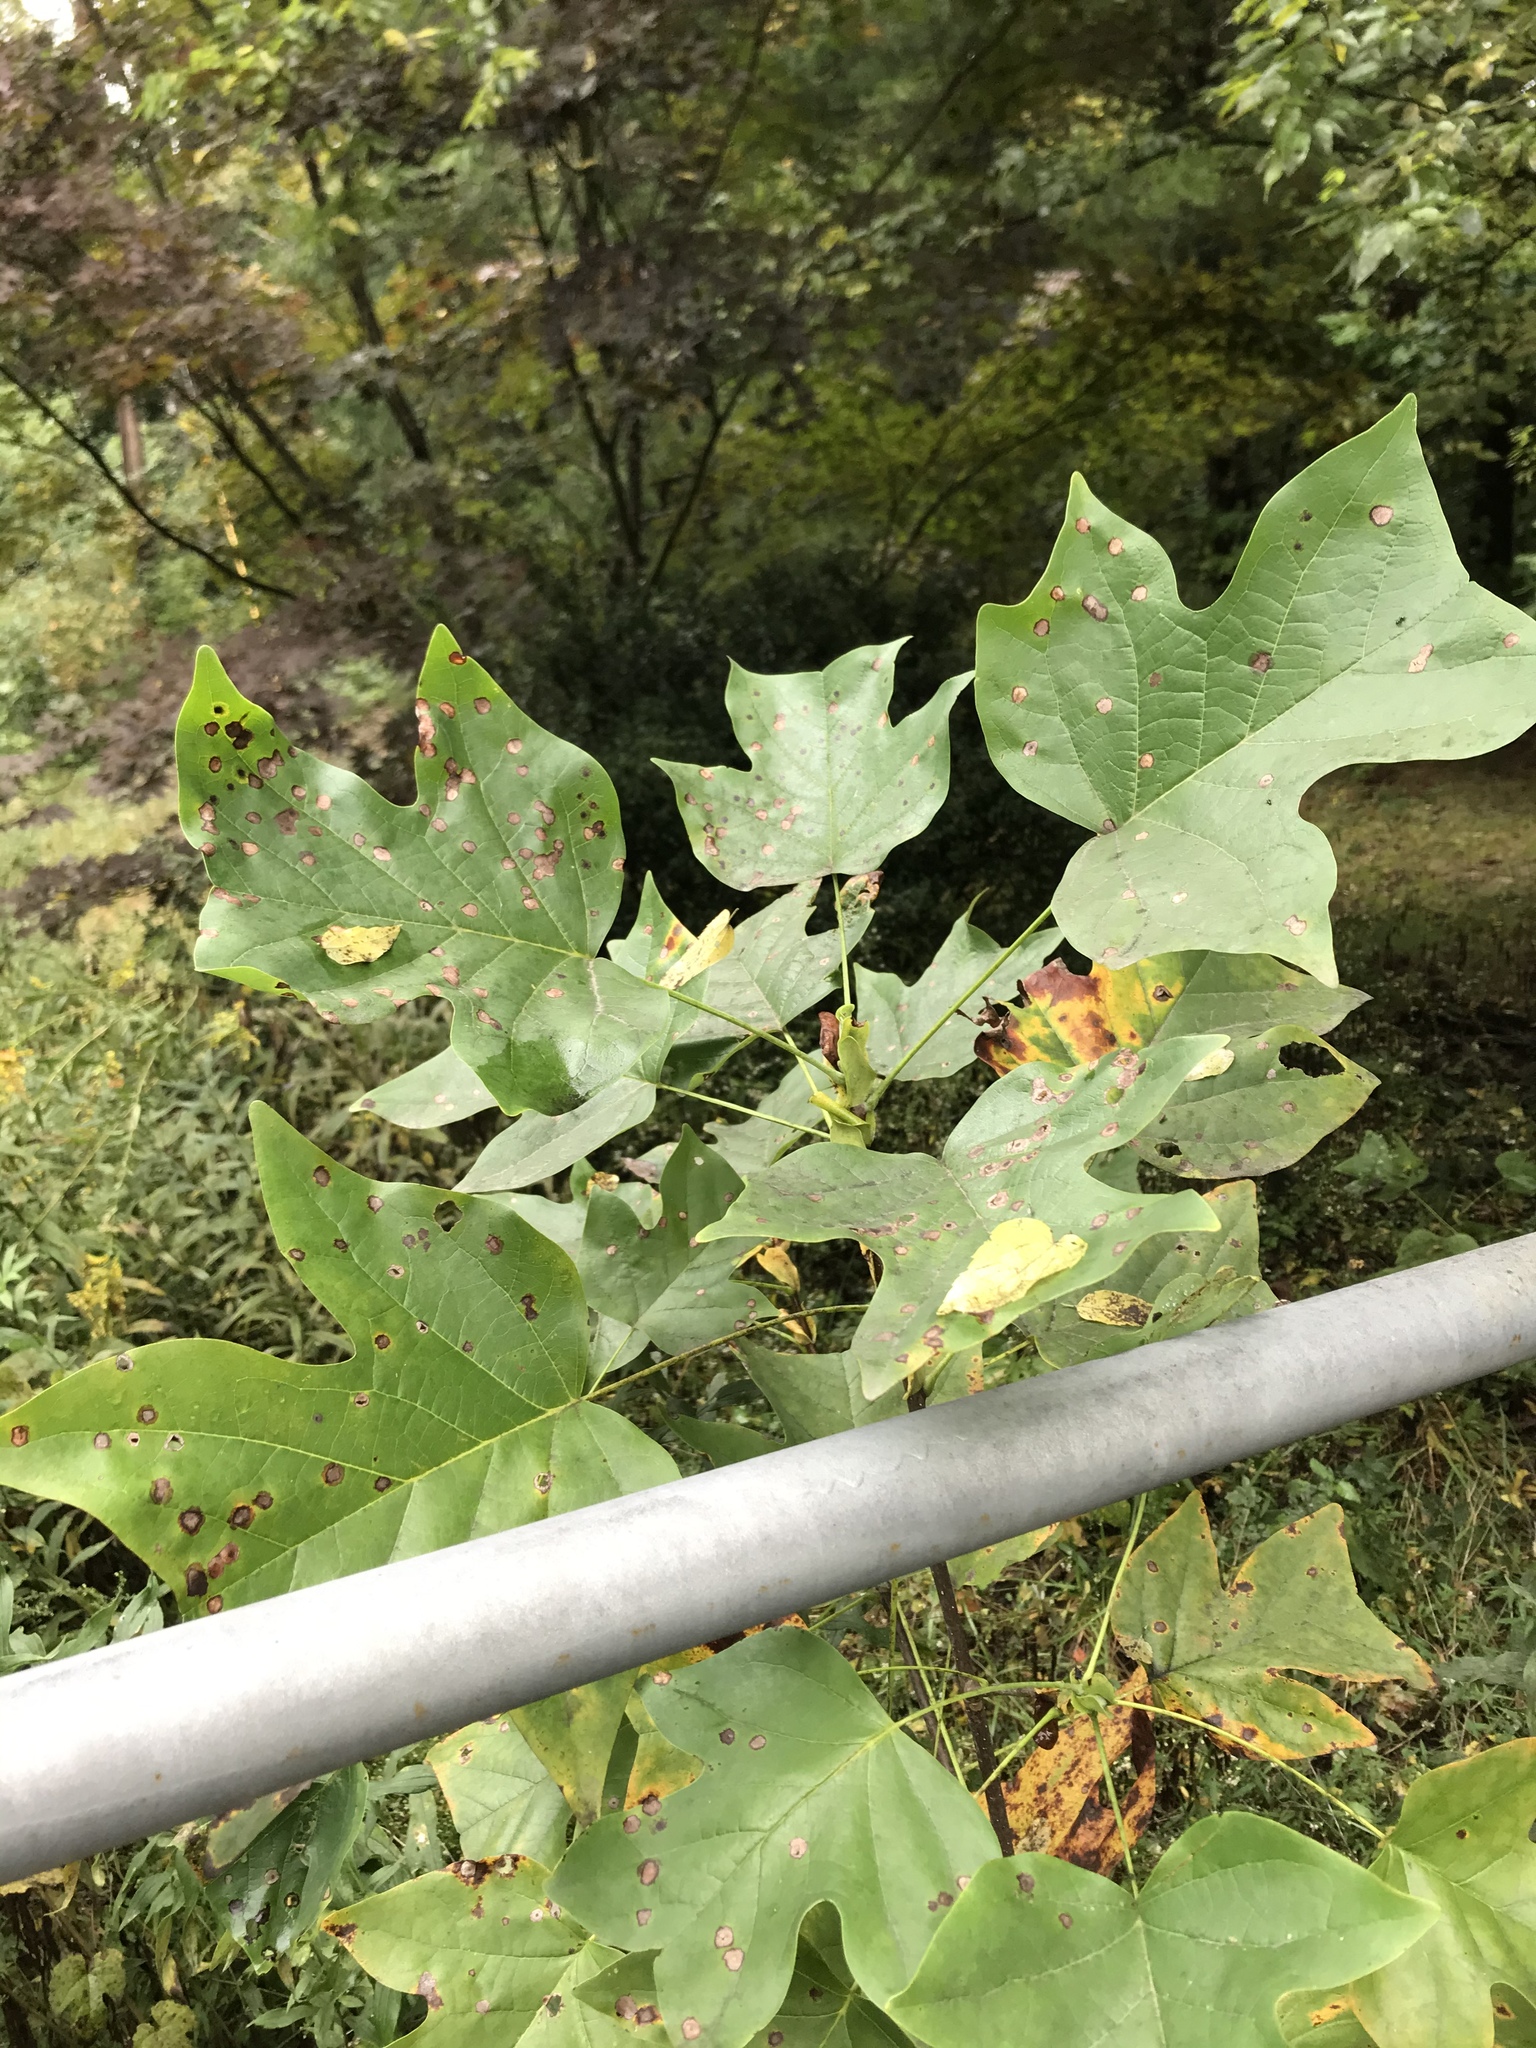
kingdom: Plantae
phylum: Tracheophyta
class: Magnoliopsida
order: Magnoliales
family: Magnoliaceae
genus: Liriodendron
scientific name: Liriodendron tulipifera
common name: Tulip tree
